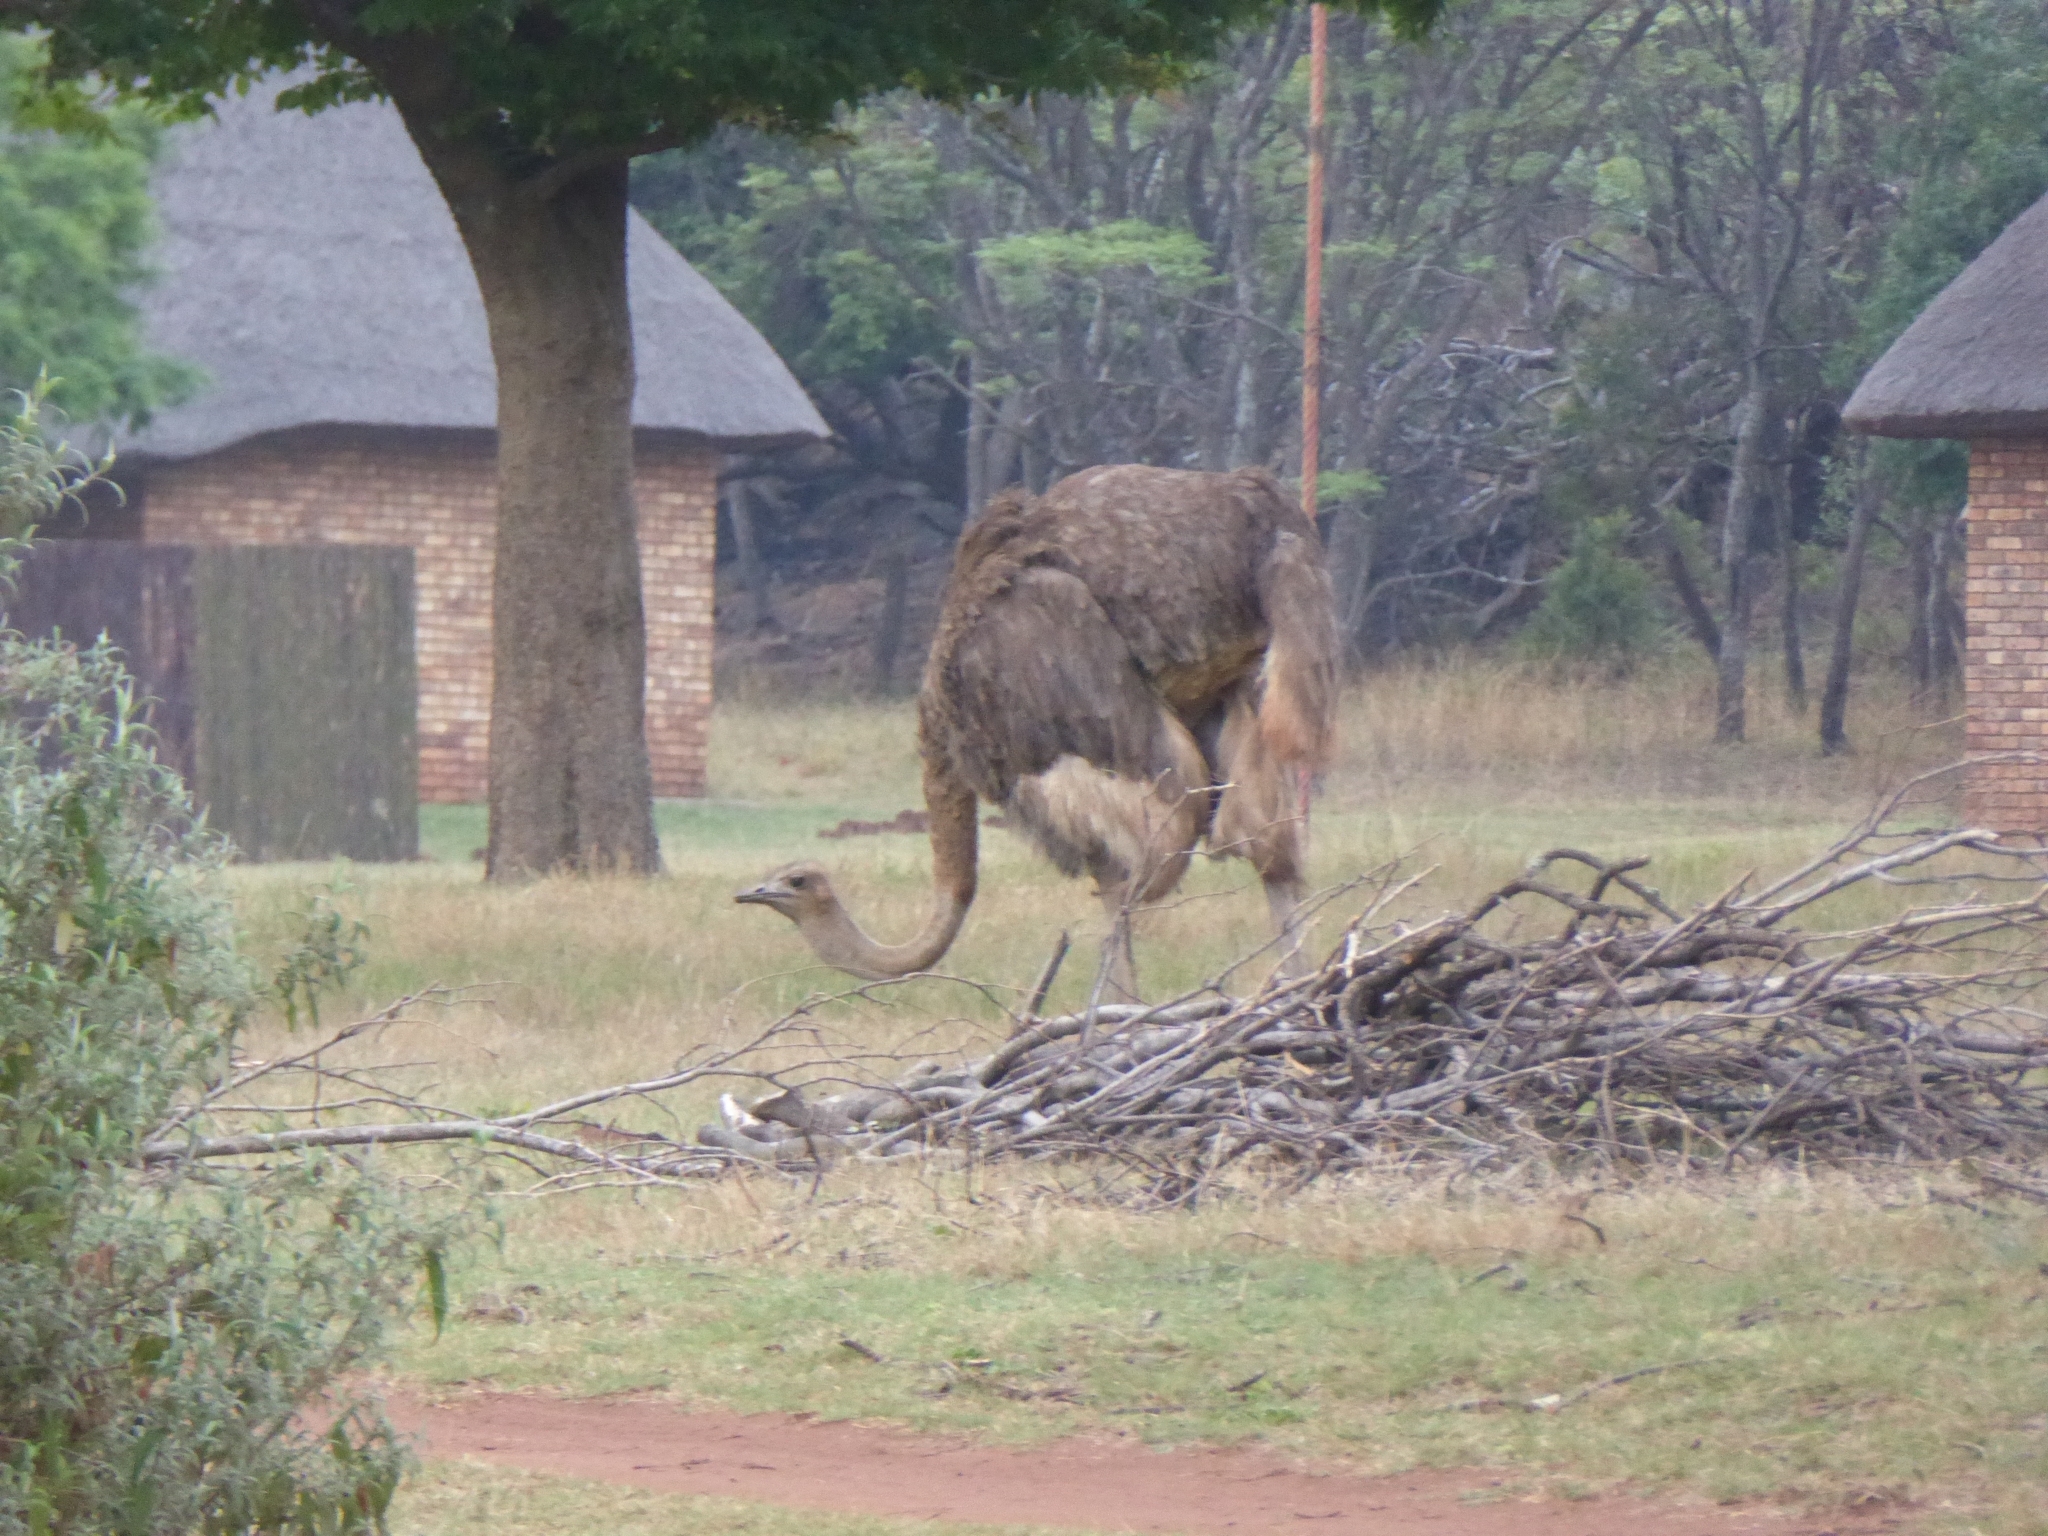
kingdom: Animalia
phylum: Chordata
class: Aves
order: Struthioniformes
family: Struthionidae
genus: Struthio
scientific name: Struthio camelus
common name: Common ostrich
